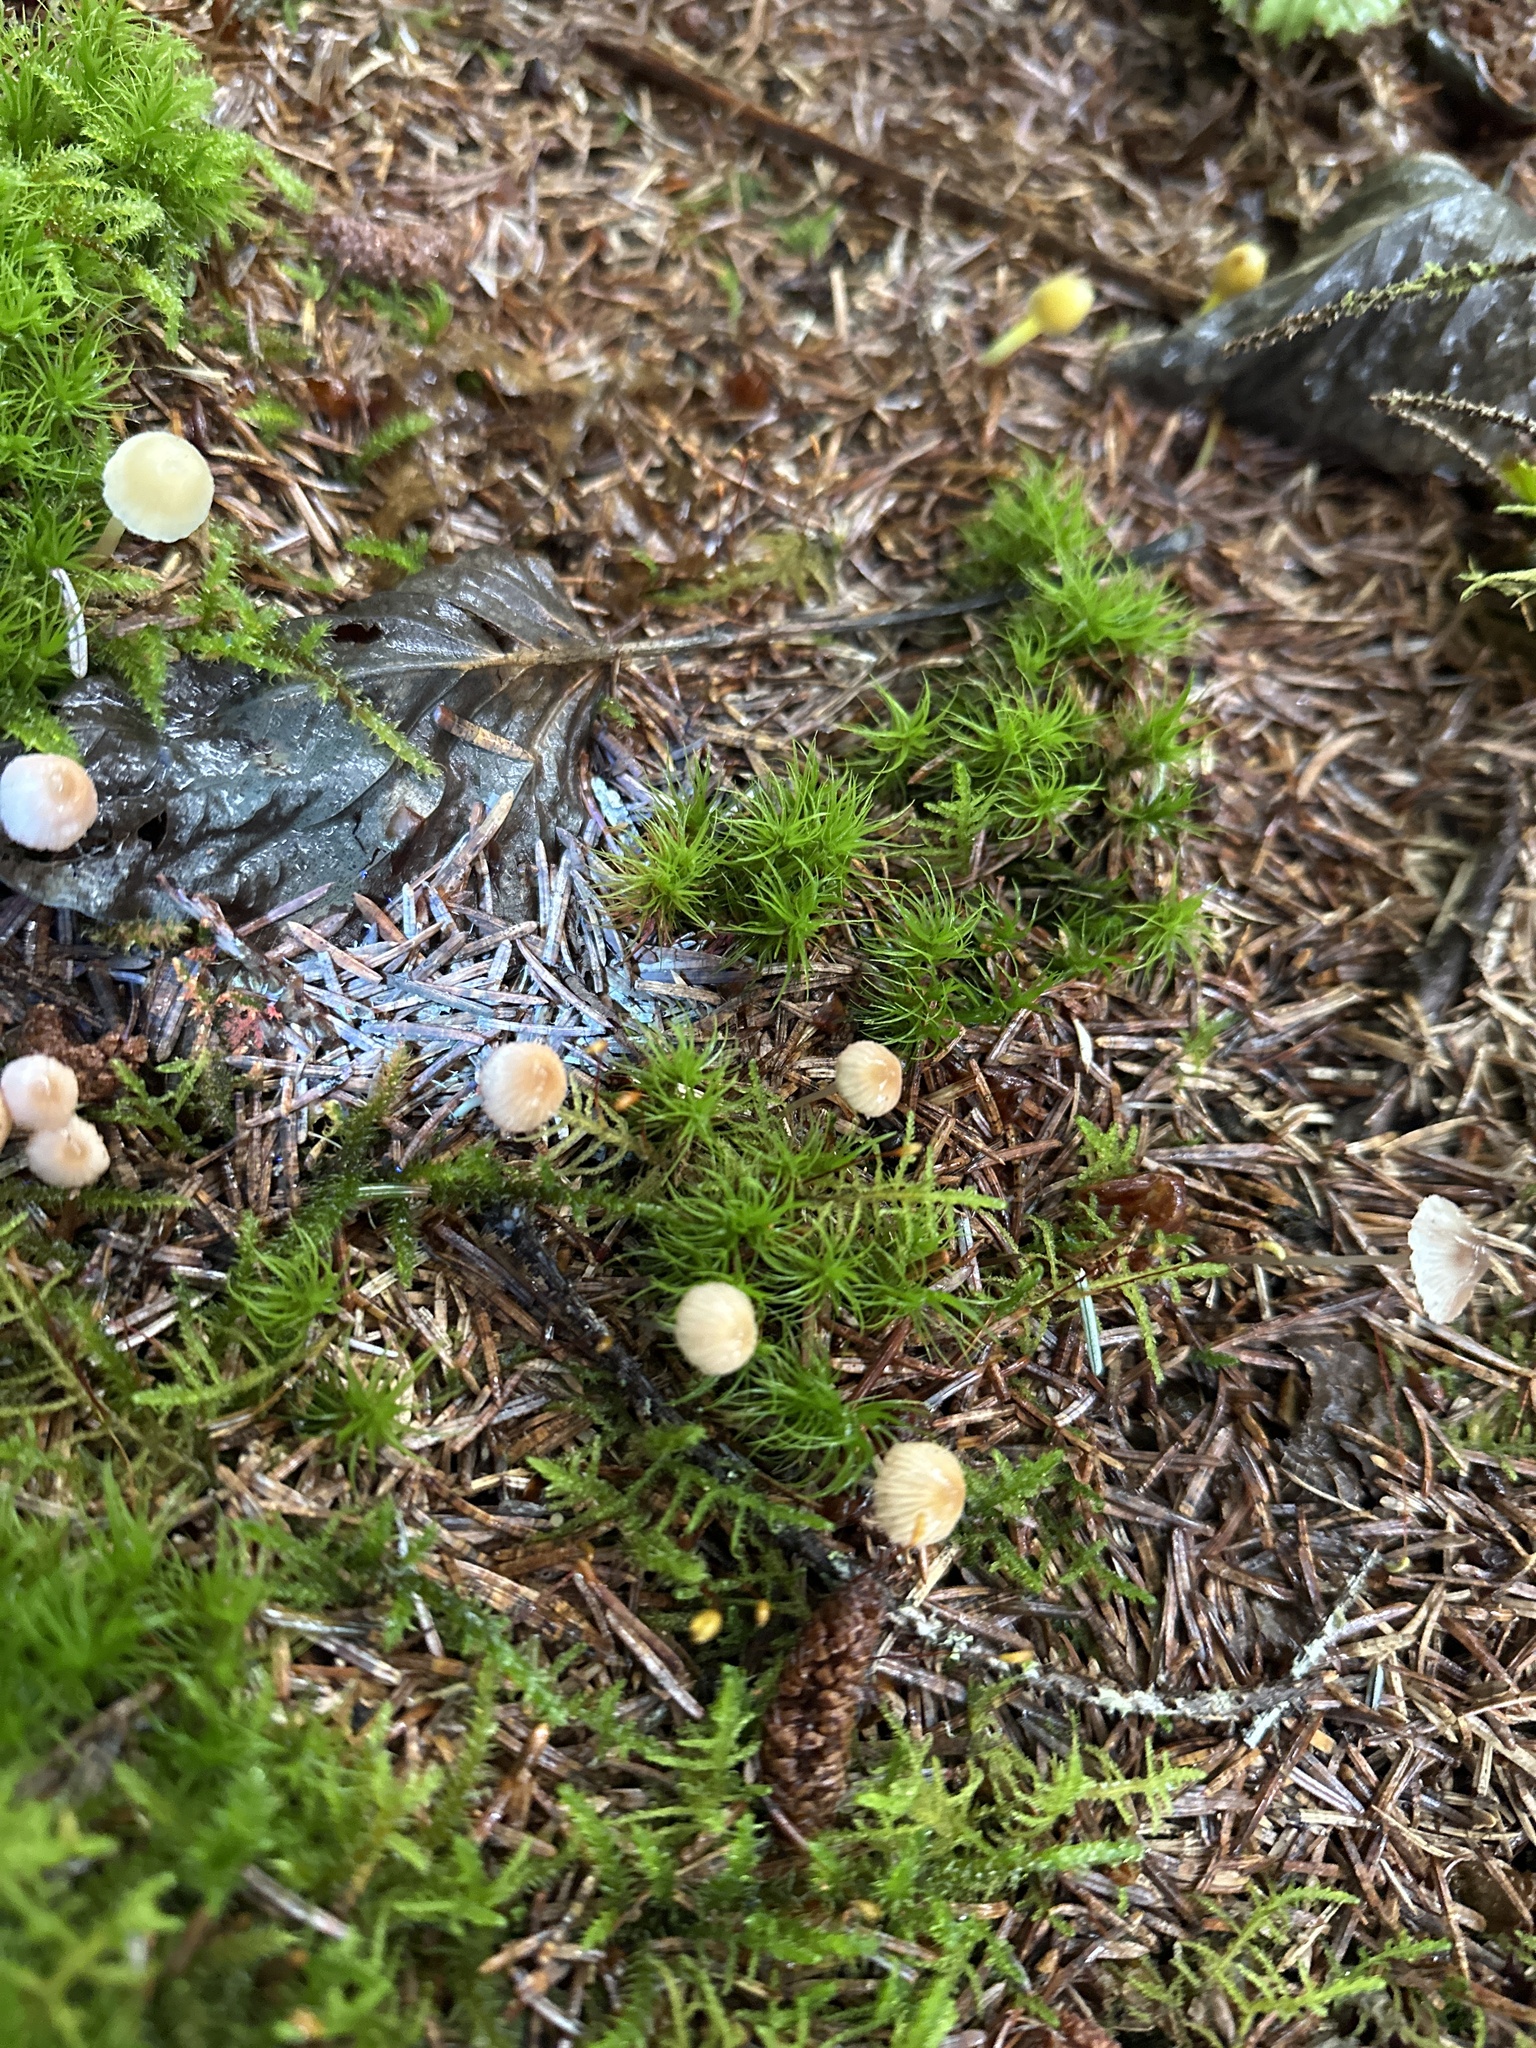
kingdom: Fungi
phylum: Basidiomycota
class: Agaricomycetes
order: Agaricales
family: Mycenaceae
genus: Mycena
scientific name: Mycena epipterygia
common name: Yellowleg bonnet
